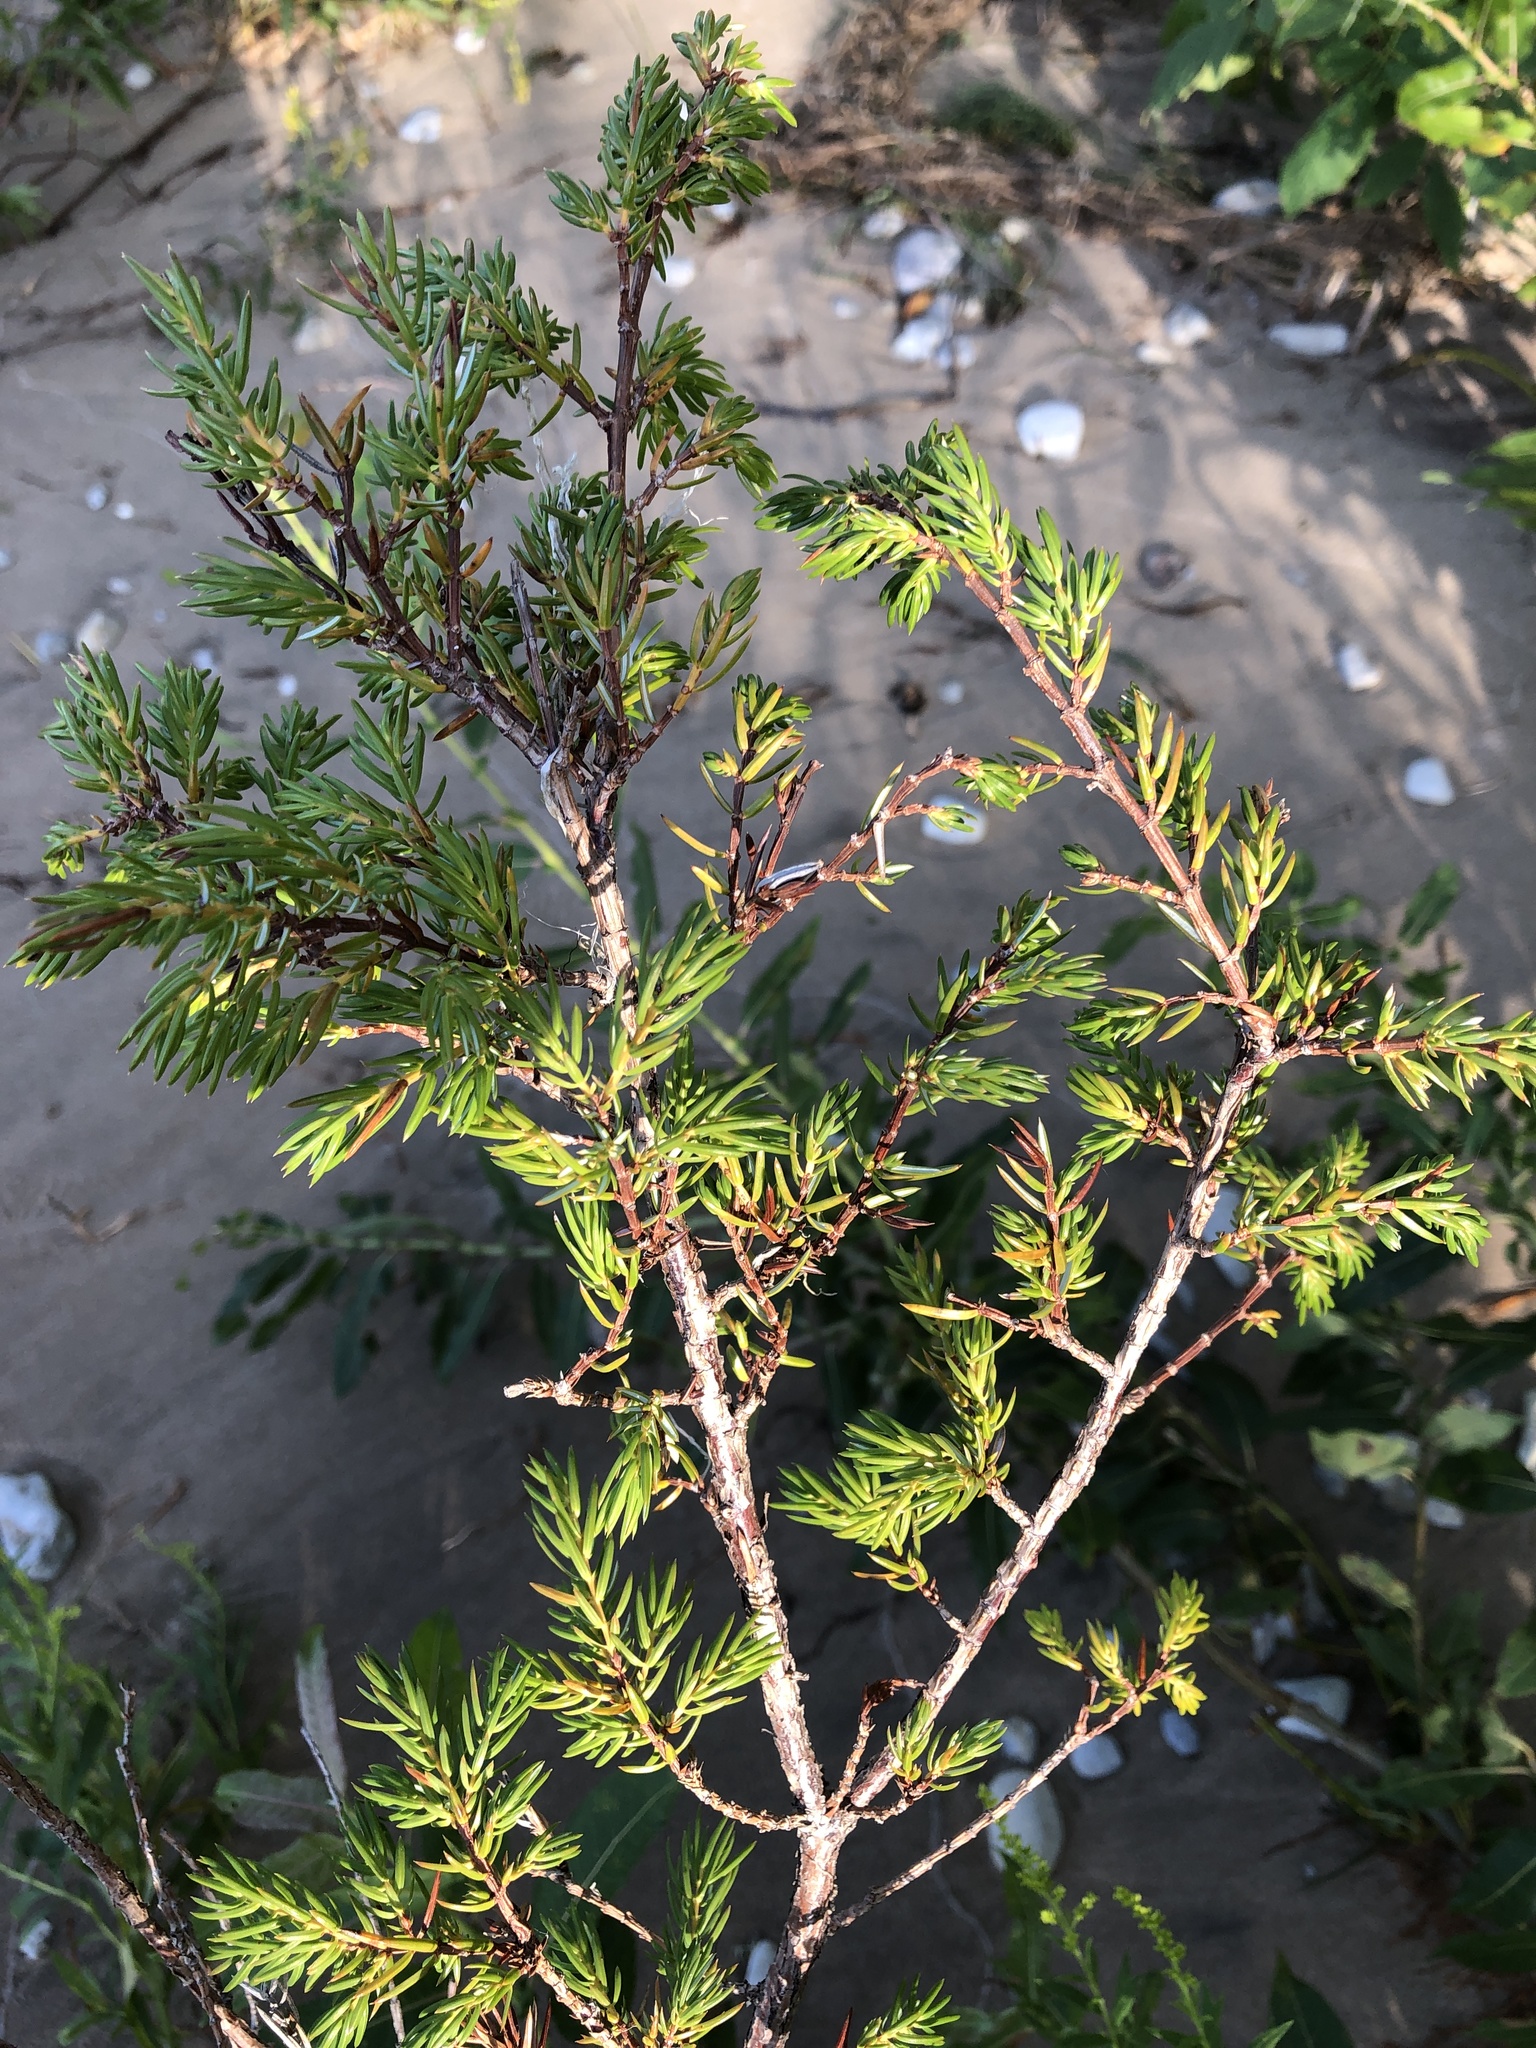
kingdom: Plantae
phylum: Tracheophyta
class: Pinopsida
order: Pinales
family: Cupressaceae
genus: Juniperus
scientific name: Juniperus communis
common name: Common juniper
